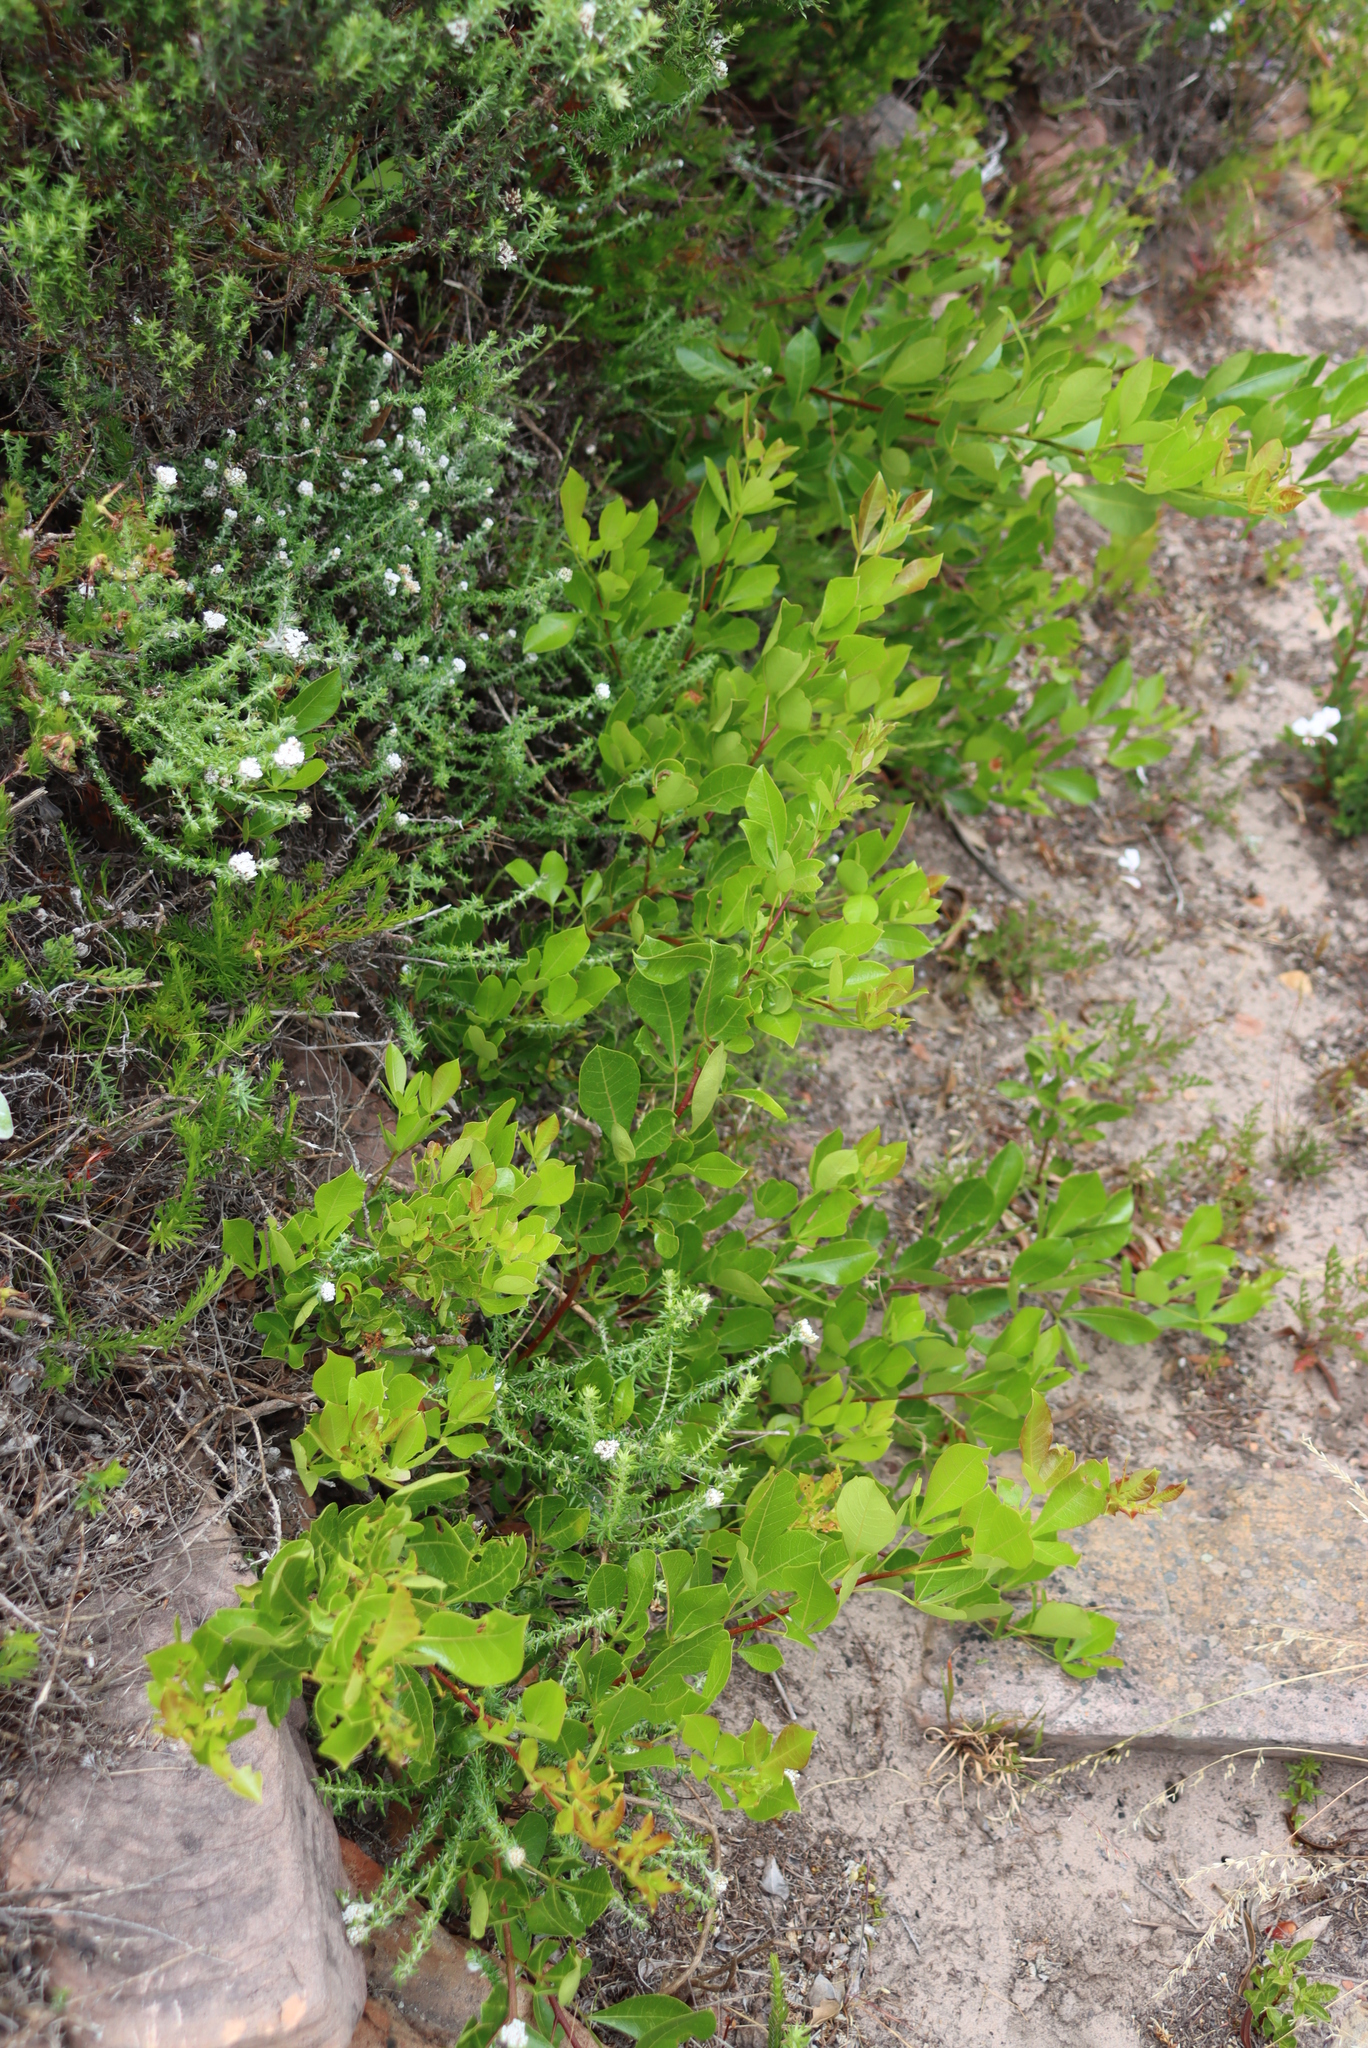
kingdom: Plantae
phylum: Tracheophyta
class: Magnoliopsida
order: Sapindales
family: Anacardiaceae
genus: Searsia
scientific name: Searsia laevigata
